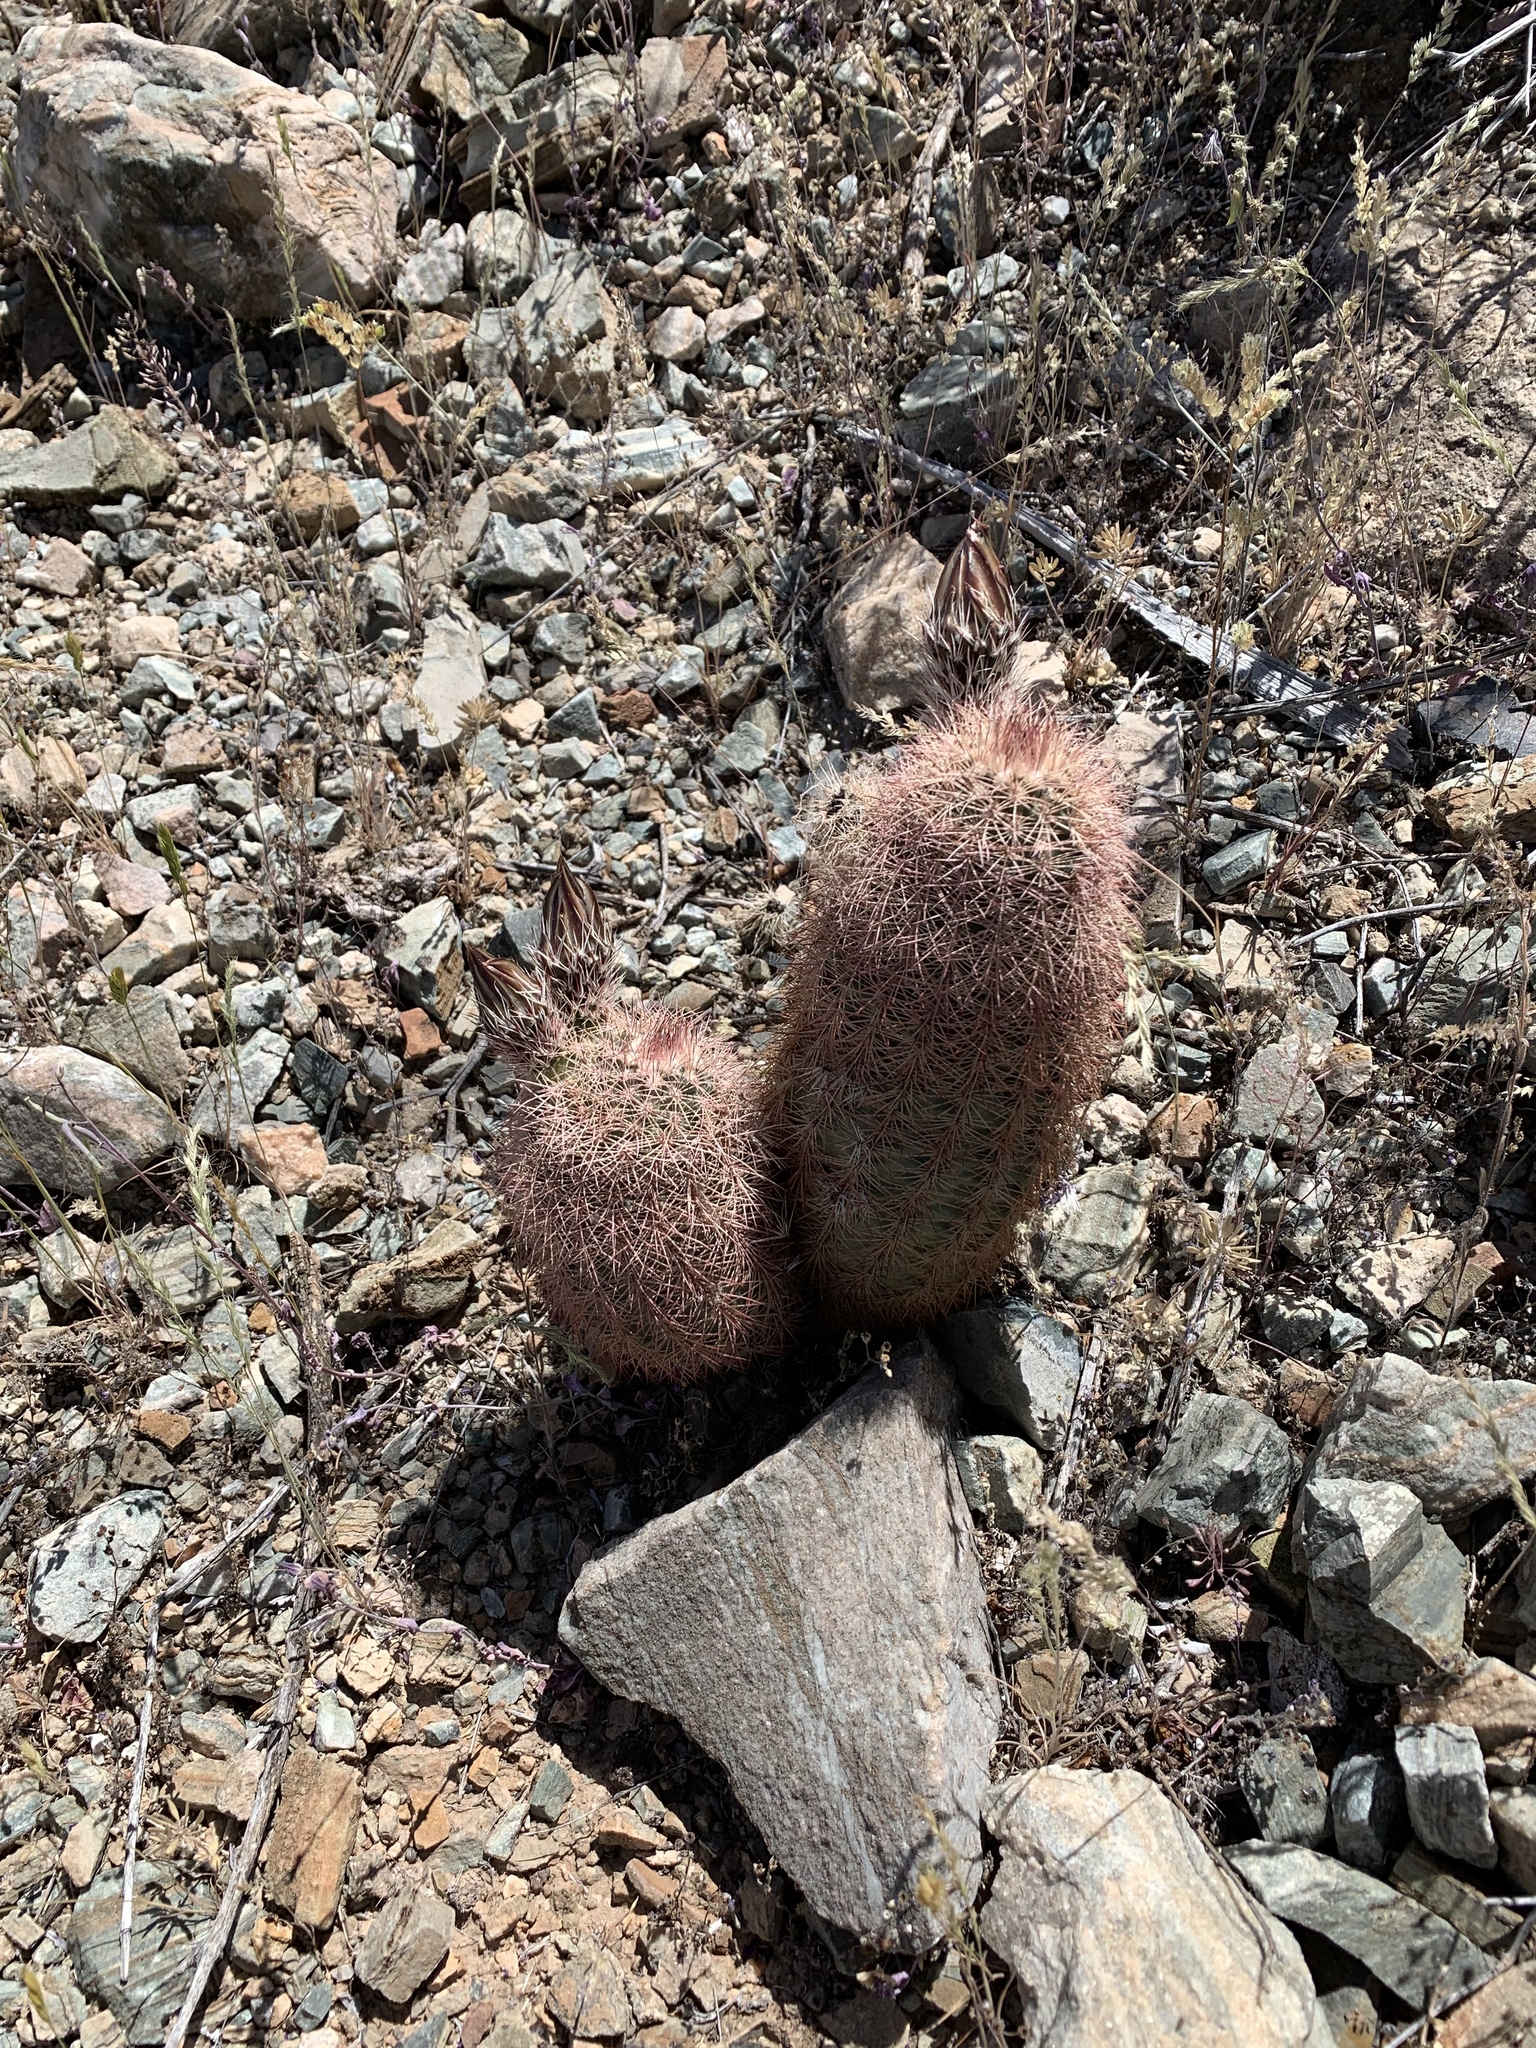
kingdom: Plantae
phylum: Tracheophyta
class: Magnoliopsida
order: Caryophyllales
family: Cactaceae
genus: Echinocereus
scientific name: Echinocereus dasyacanthus
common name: Spiny hedgehog cactus
